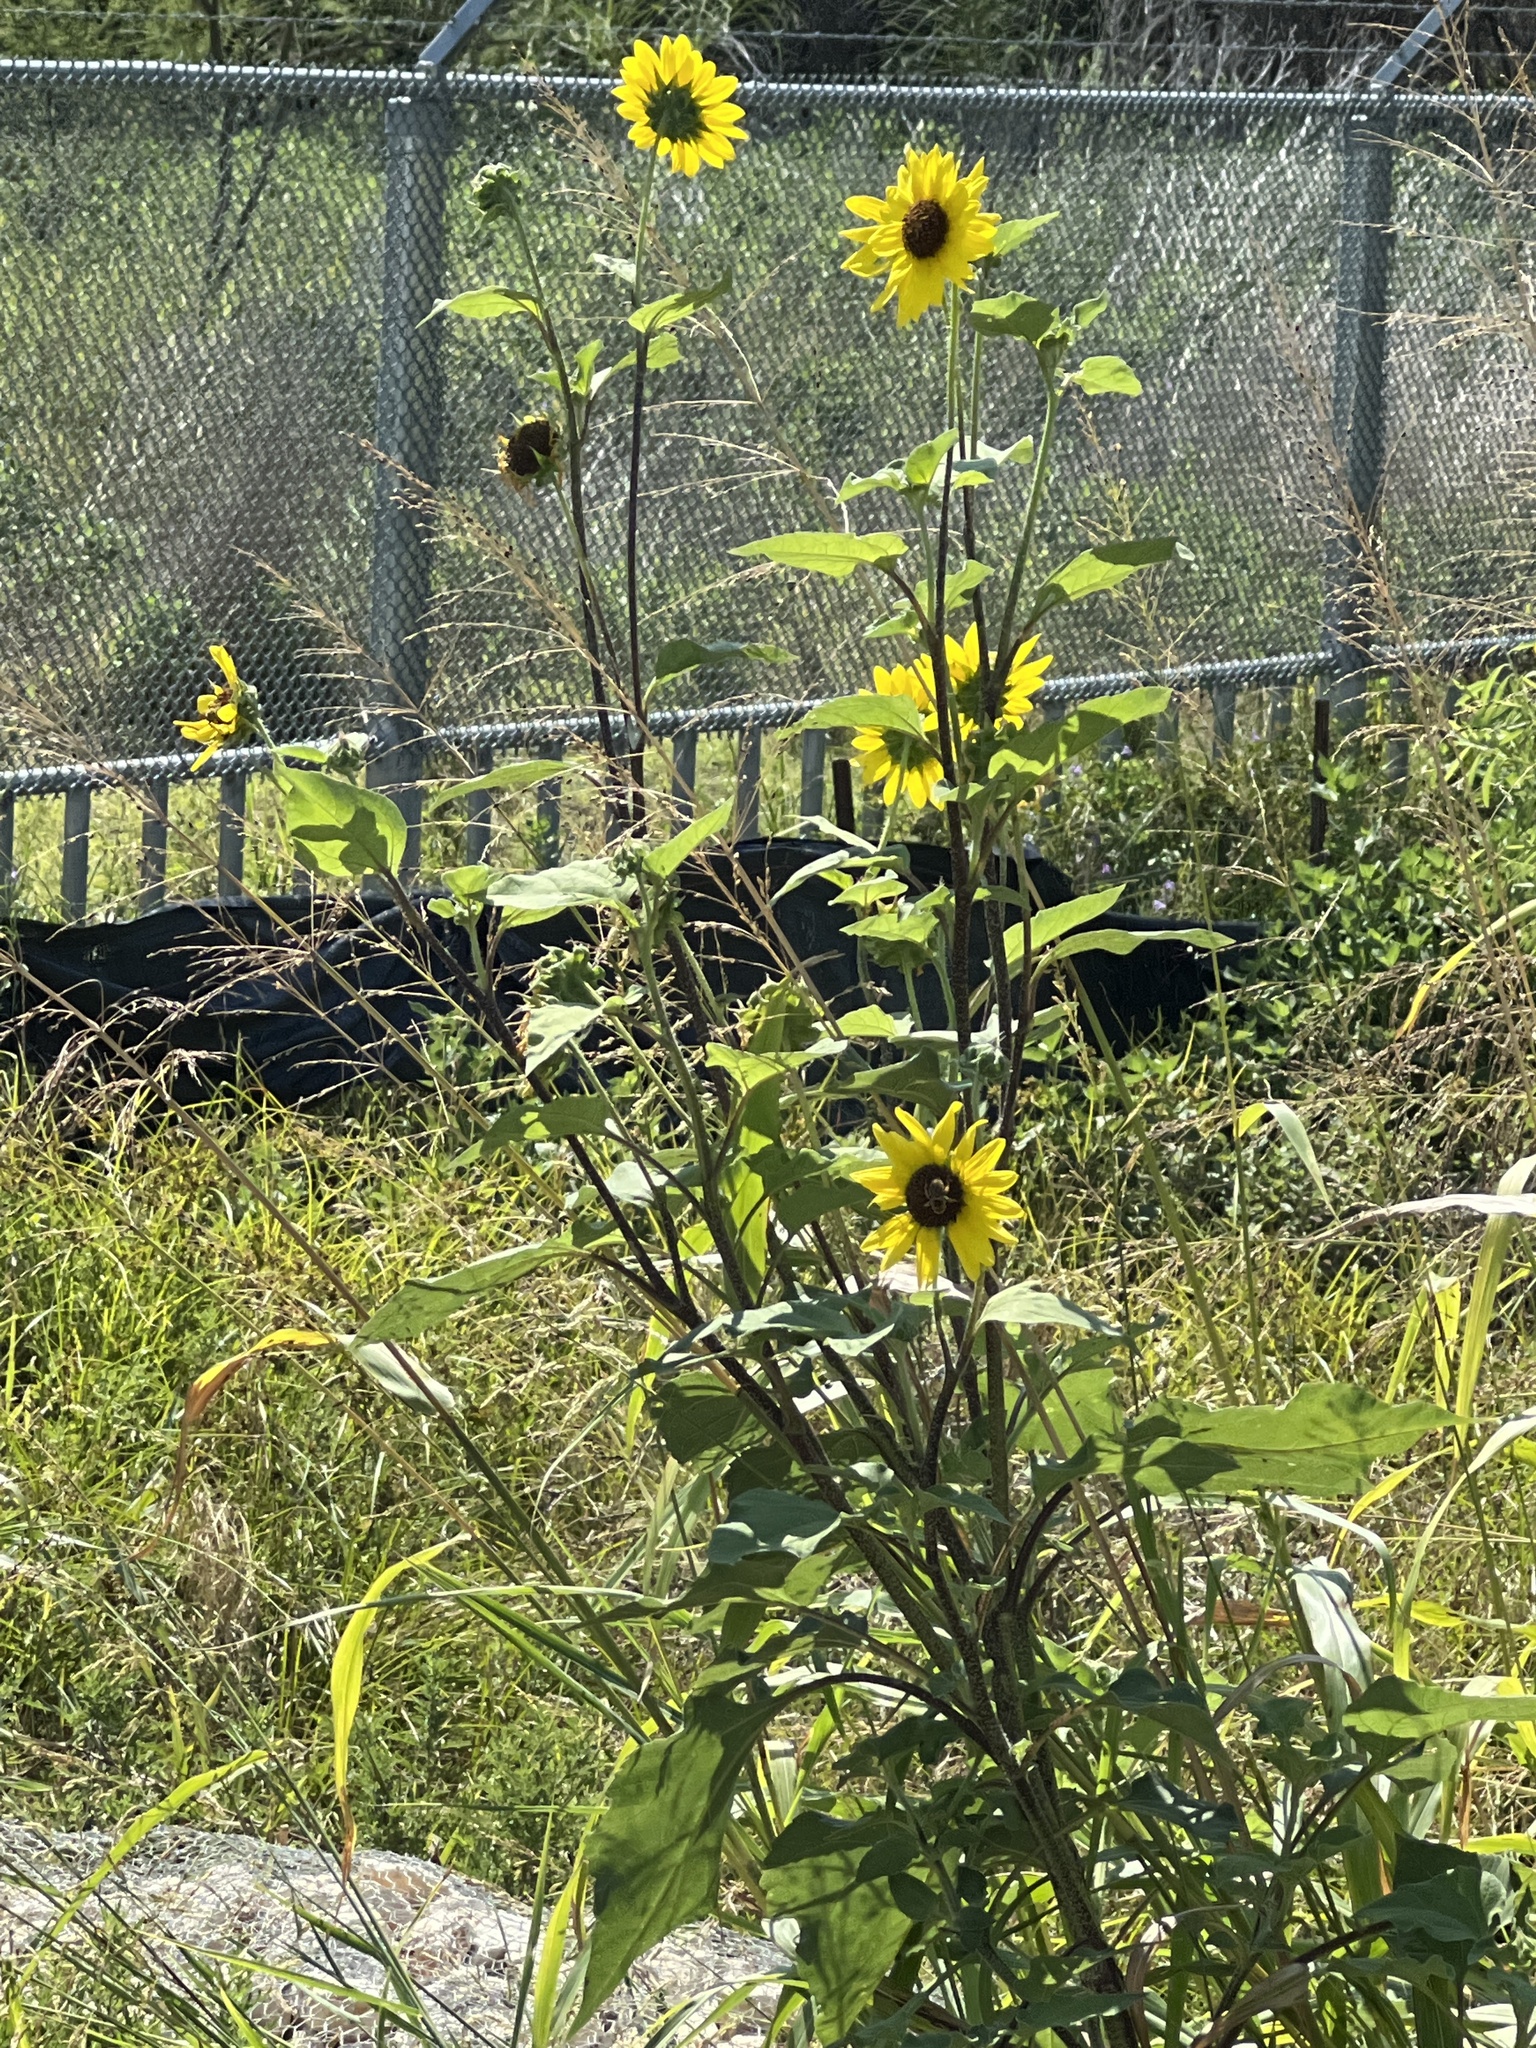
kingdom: Plantae
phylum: Tracheophyta
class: Magnoliopsida
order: Asterales
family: Asteraceae
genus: Helianthus
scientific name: Helianthus annuus
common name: Sunflower
